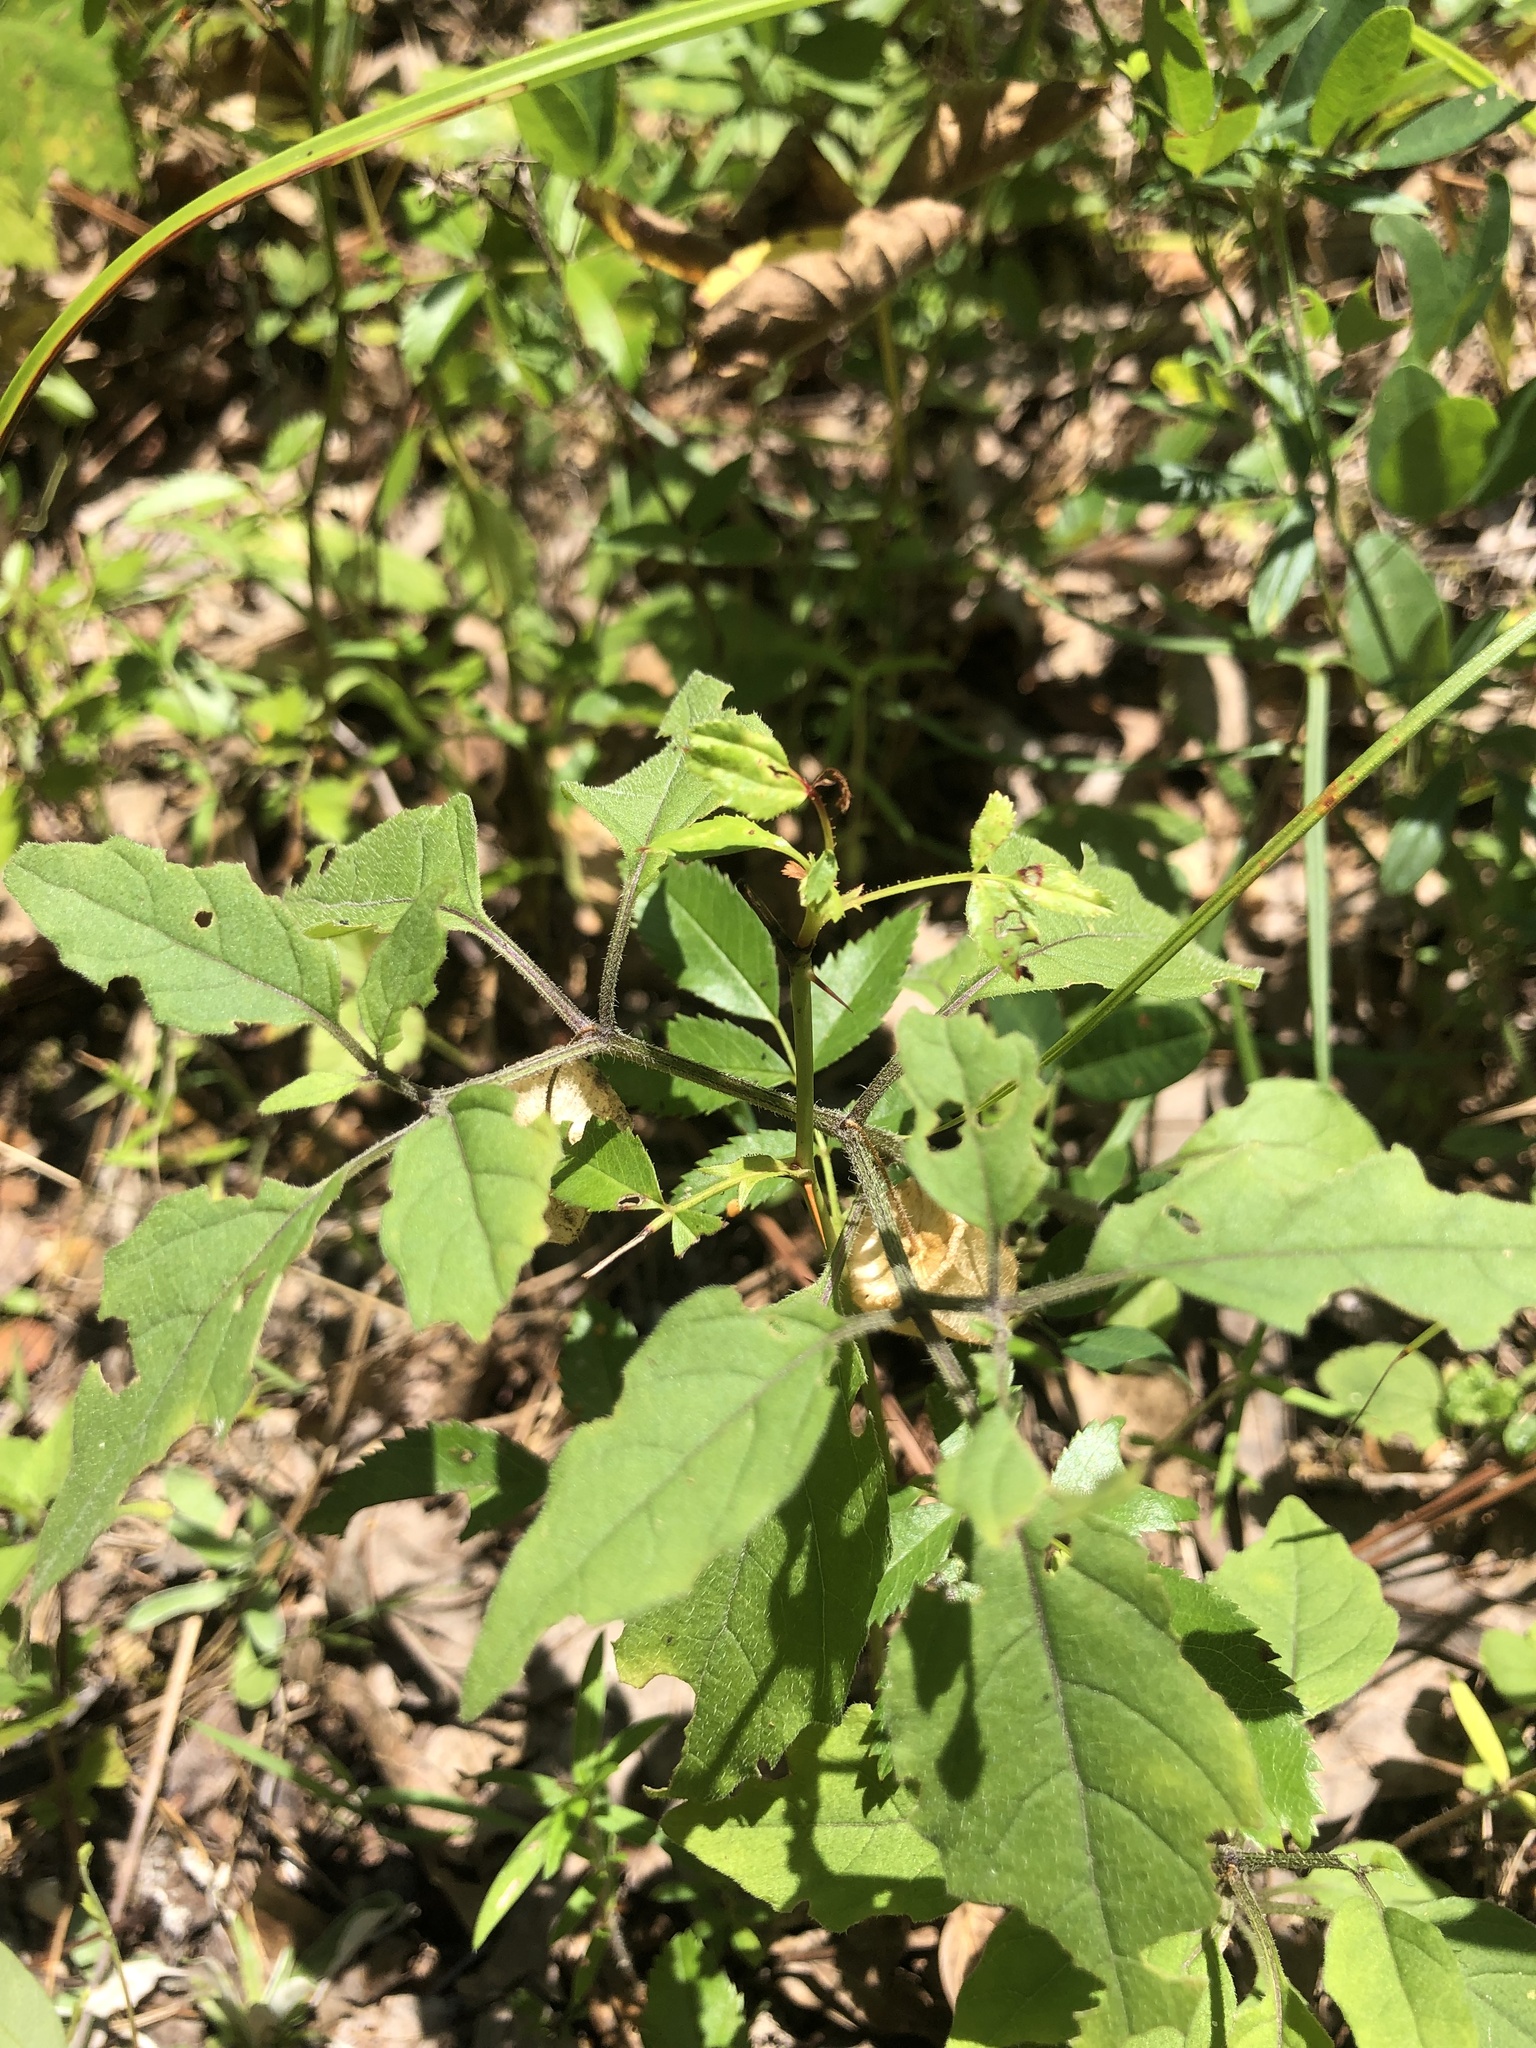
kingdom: Plantae
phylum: Tracheophyta
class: Magnoliopsida
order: Solanales
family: Solanaceae
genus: Physalis
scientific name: Physalis virginiana
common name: Virginia ground-cherry
